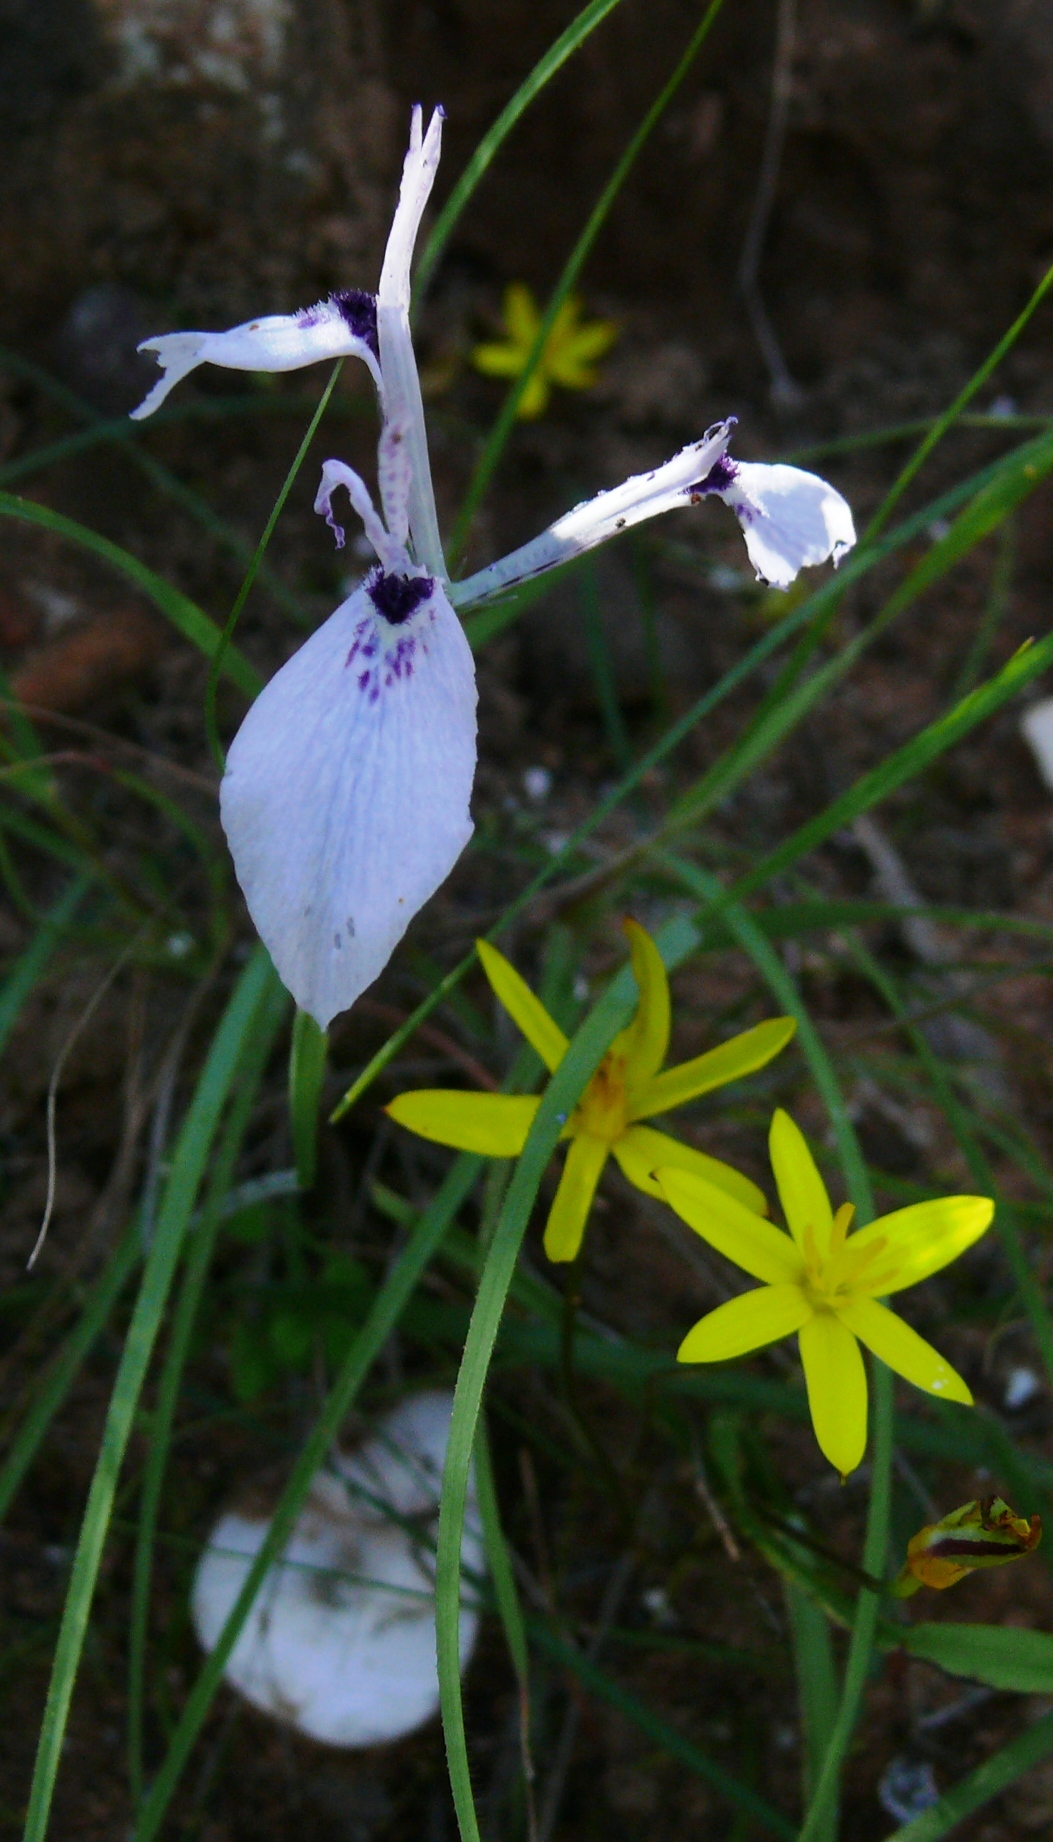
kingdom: Plantae
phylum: Tracheophyta
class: Liliopsida
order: Asparagales
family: Iridaceae
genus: Moraea
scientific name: Moraea tripetala
